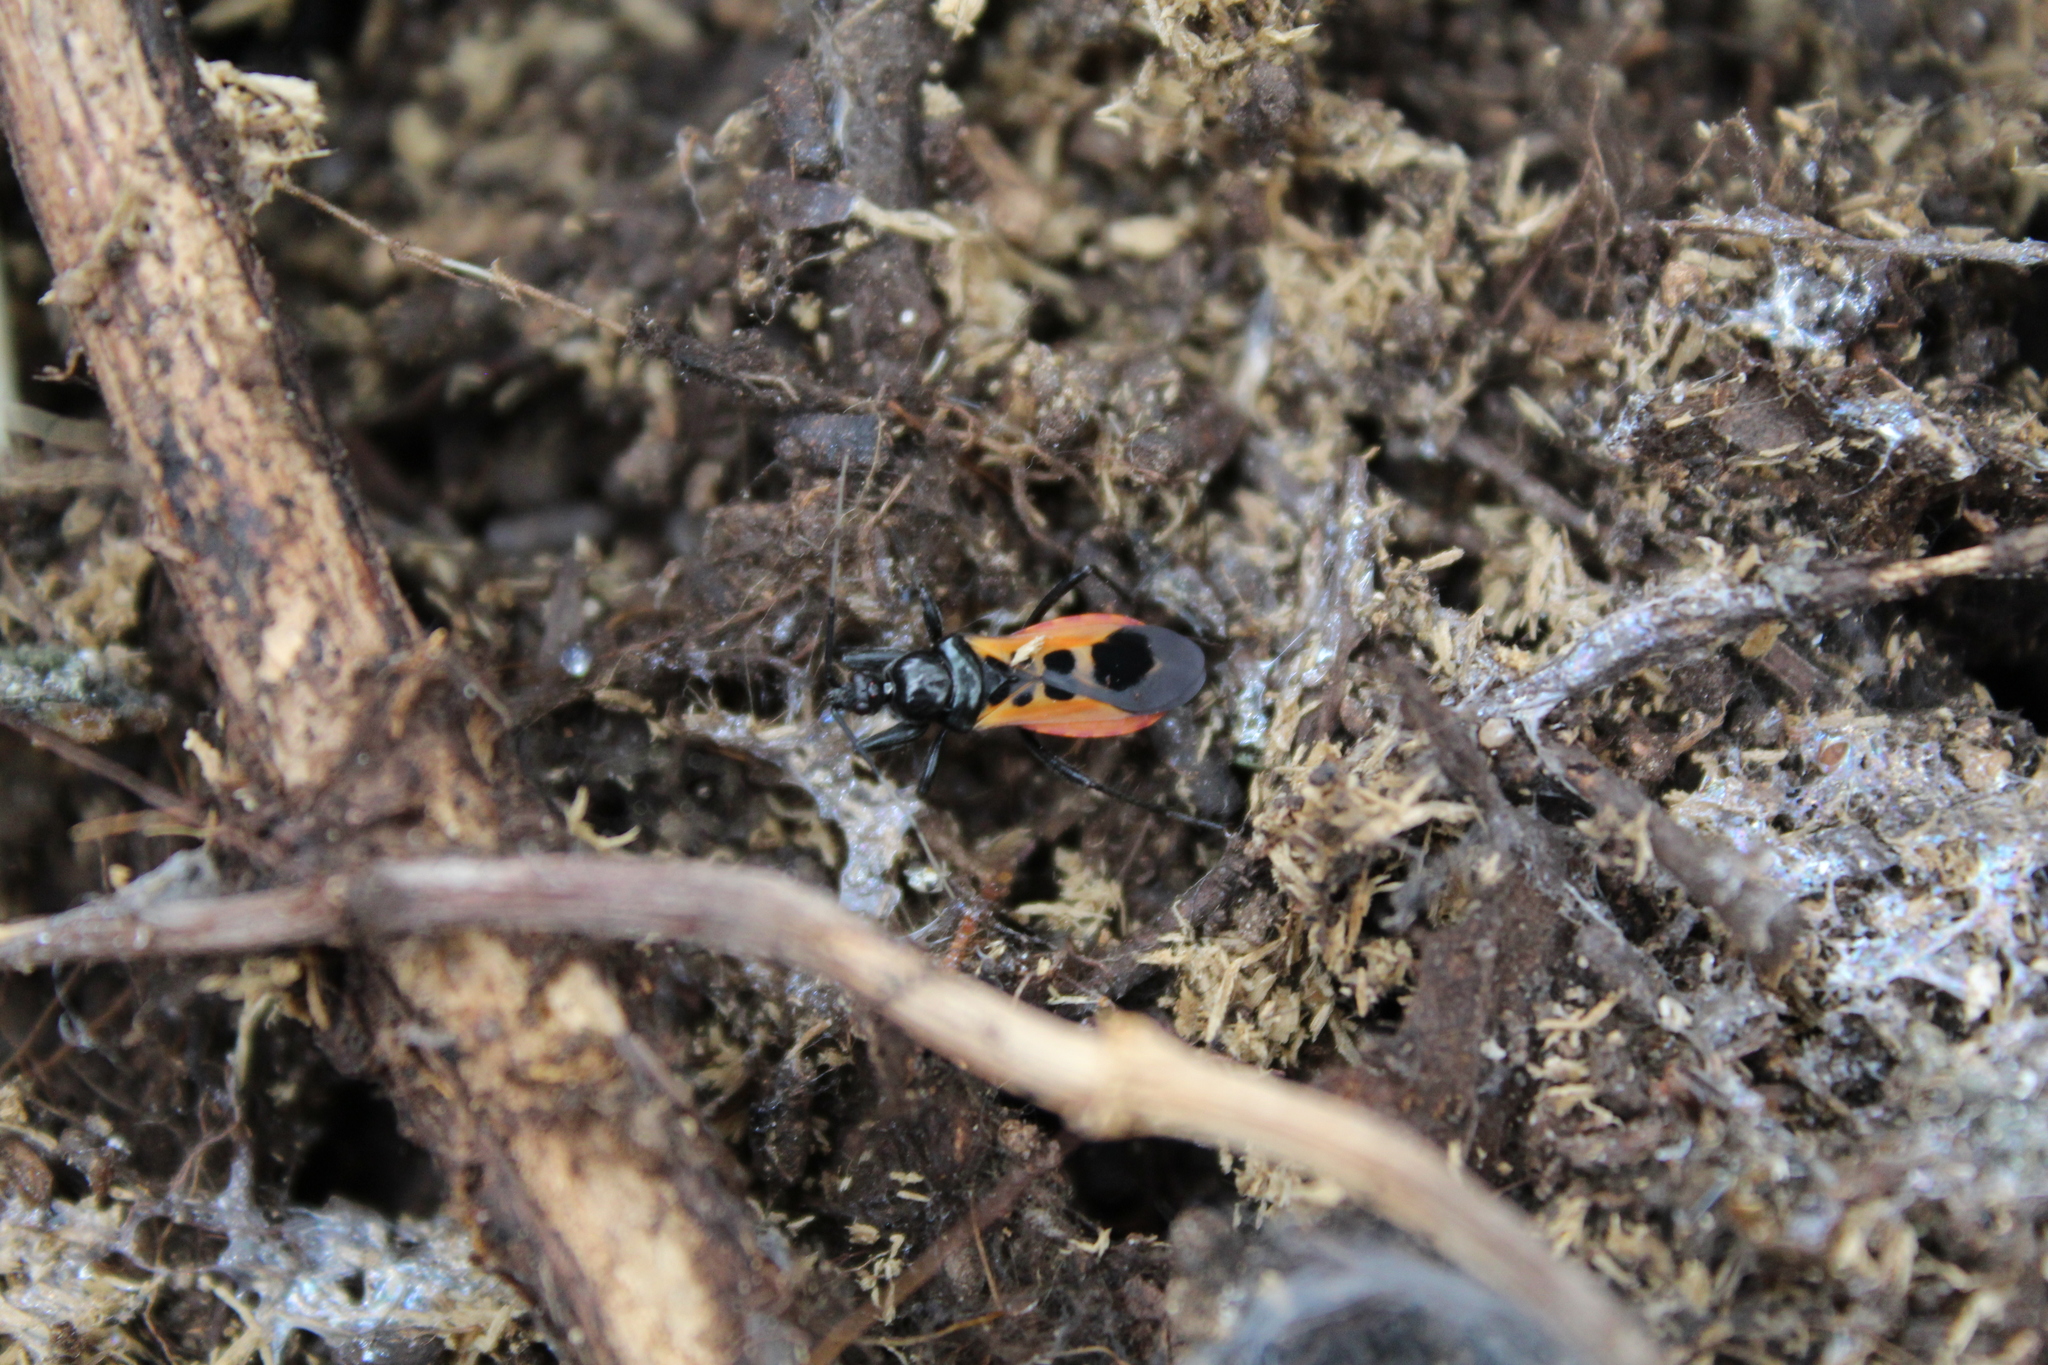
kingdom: Animalia
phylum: Arthropoda
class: Insecta
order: Hemiptera
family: Reduviidae
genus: Peirates
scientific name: Peirates stridulus
